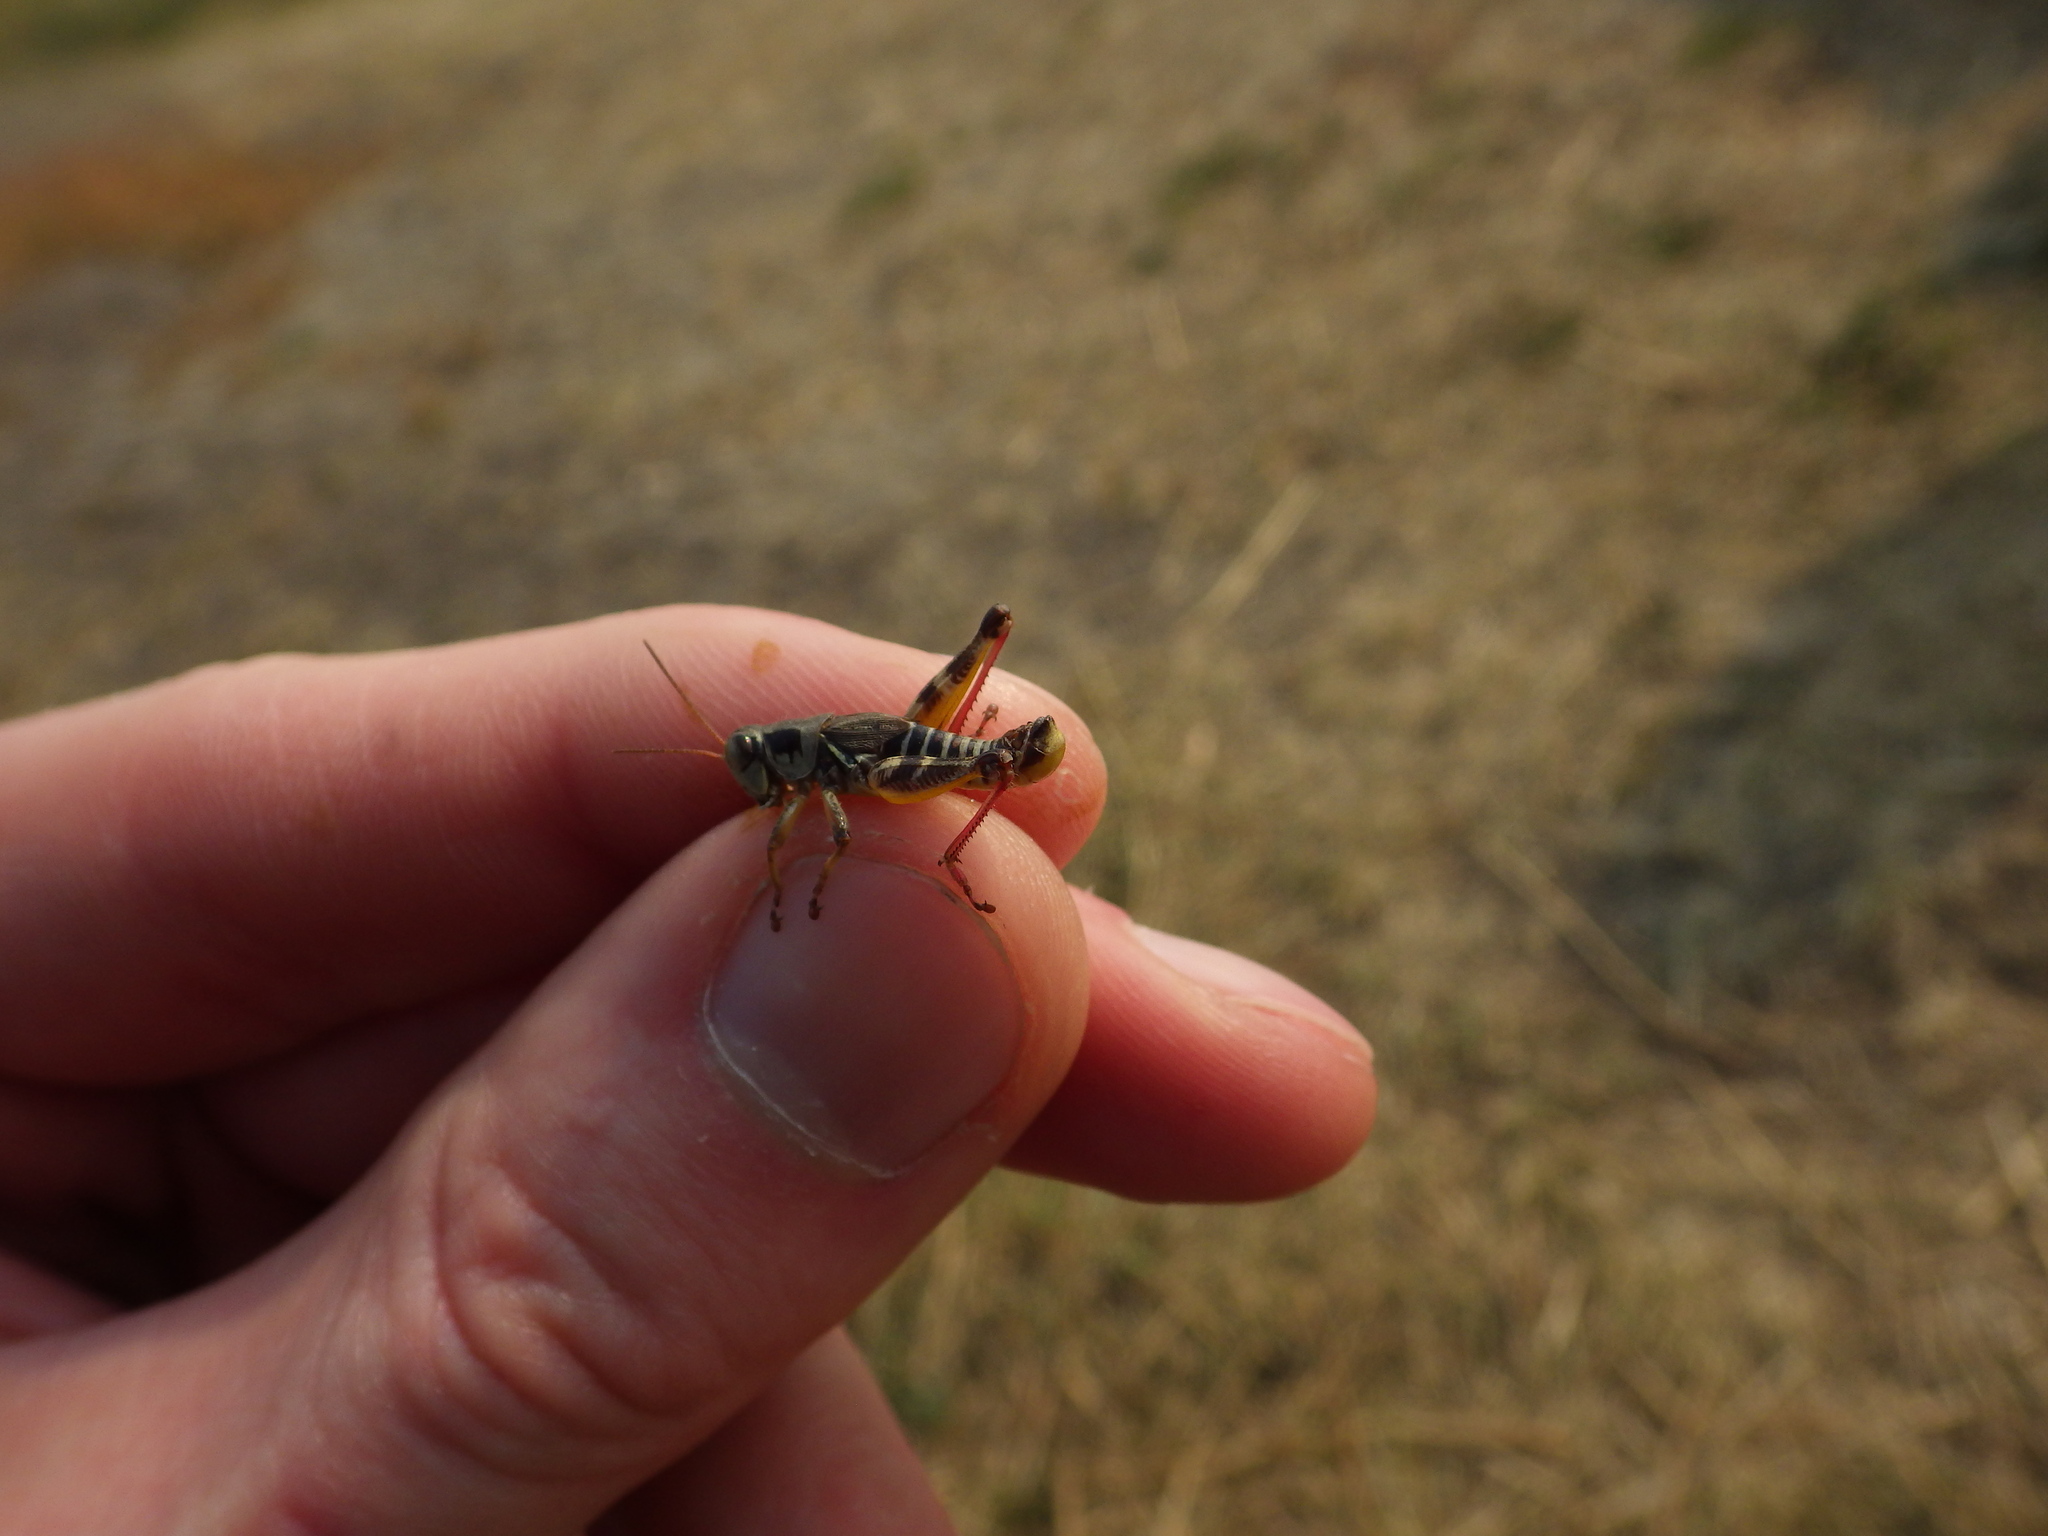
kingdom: Animalia
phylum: Arthropoda
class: Insecta
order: Orthoptera
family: Acrididae
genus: Melanoplus
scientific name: Melanoplus dawsoni
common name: Dawson grasshopper
